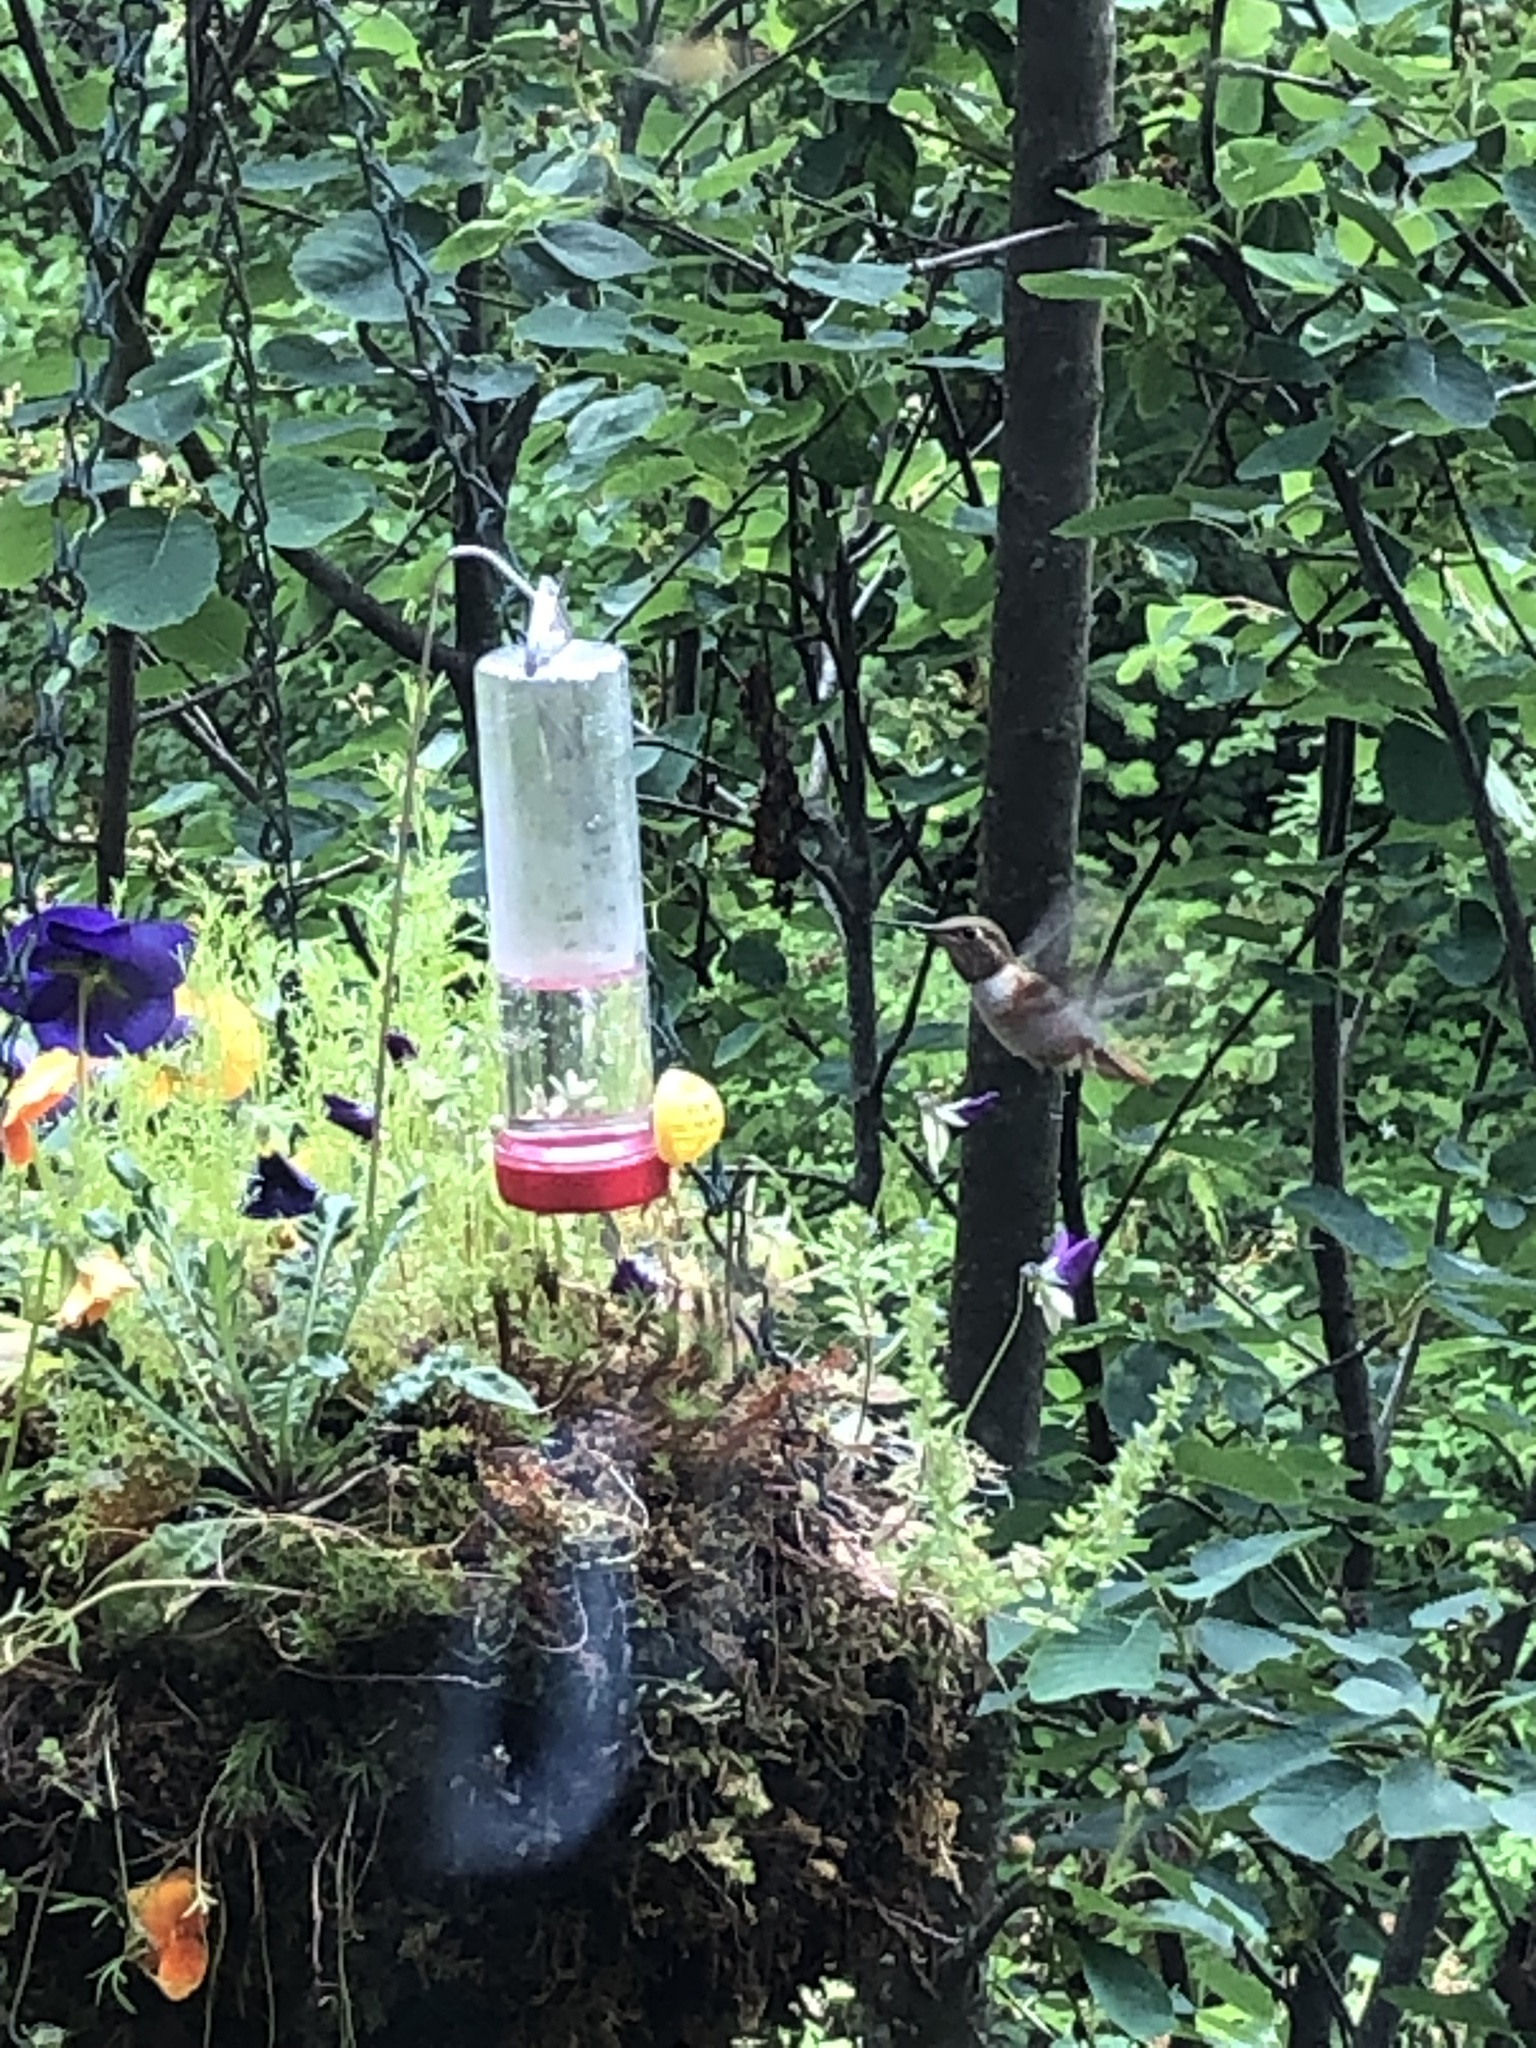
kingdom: Animalia
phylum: Chordata
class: Aves
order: Apodiformes
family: Trochilidae
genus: Selasphorus
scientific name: Selasphorus rufus
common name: Rufous hummingbird
